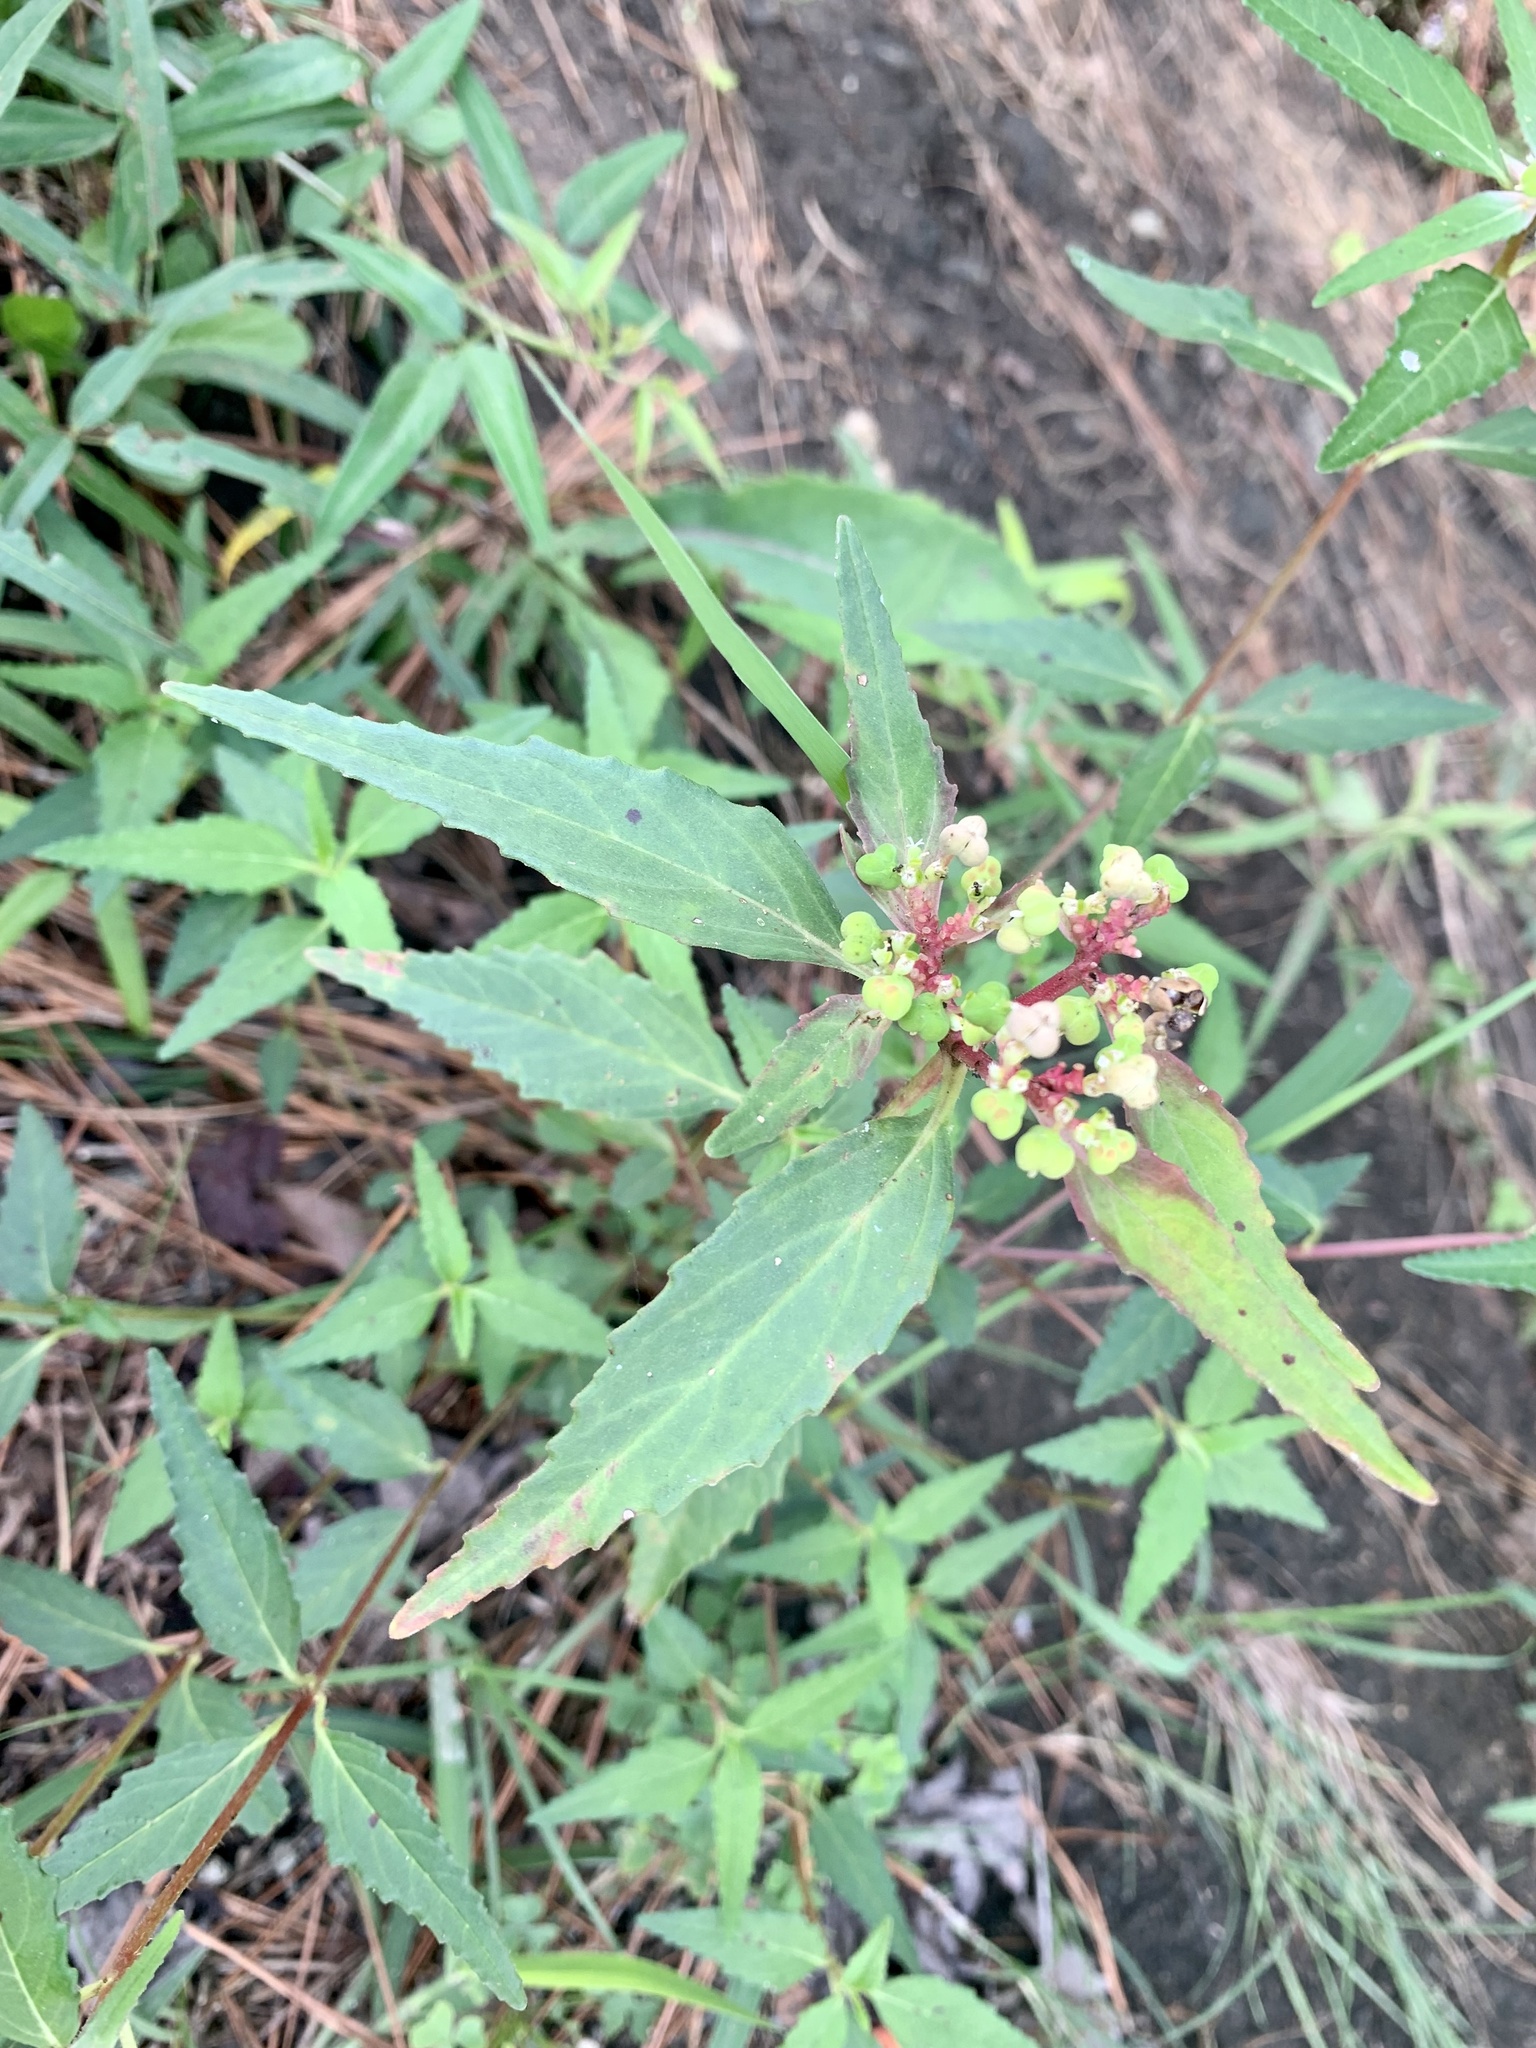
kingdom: Plantae
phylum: Tracheophyta
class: Magnoliopsida
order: Malpighiales
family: Euphorbiaceae
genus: Euphorbia
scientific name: Euphorbia dentata
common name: Dentate spurge
